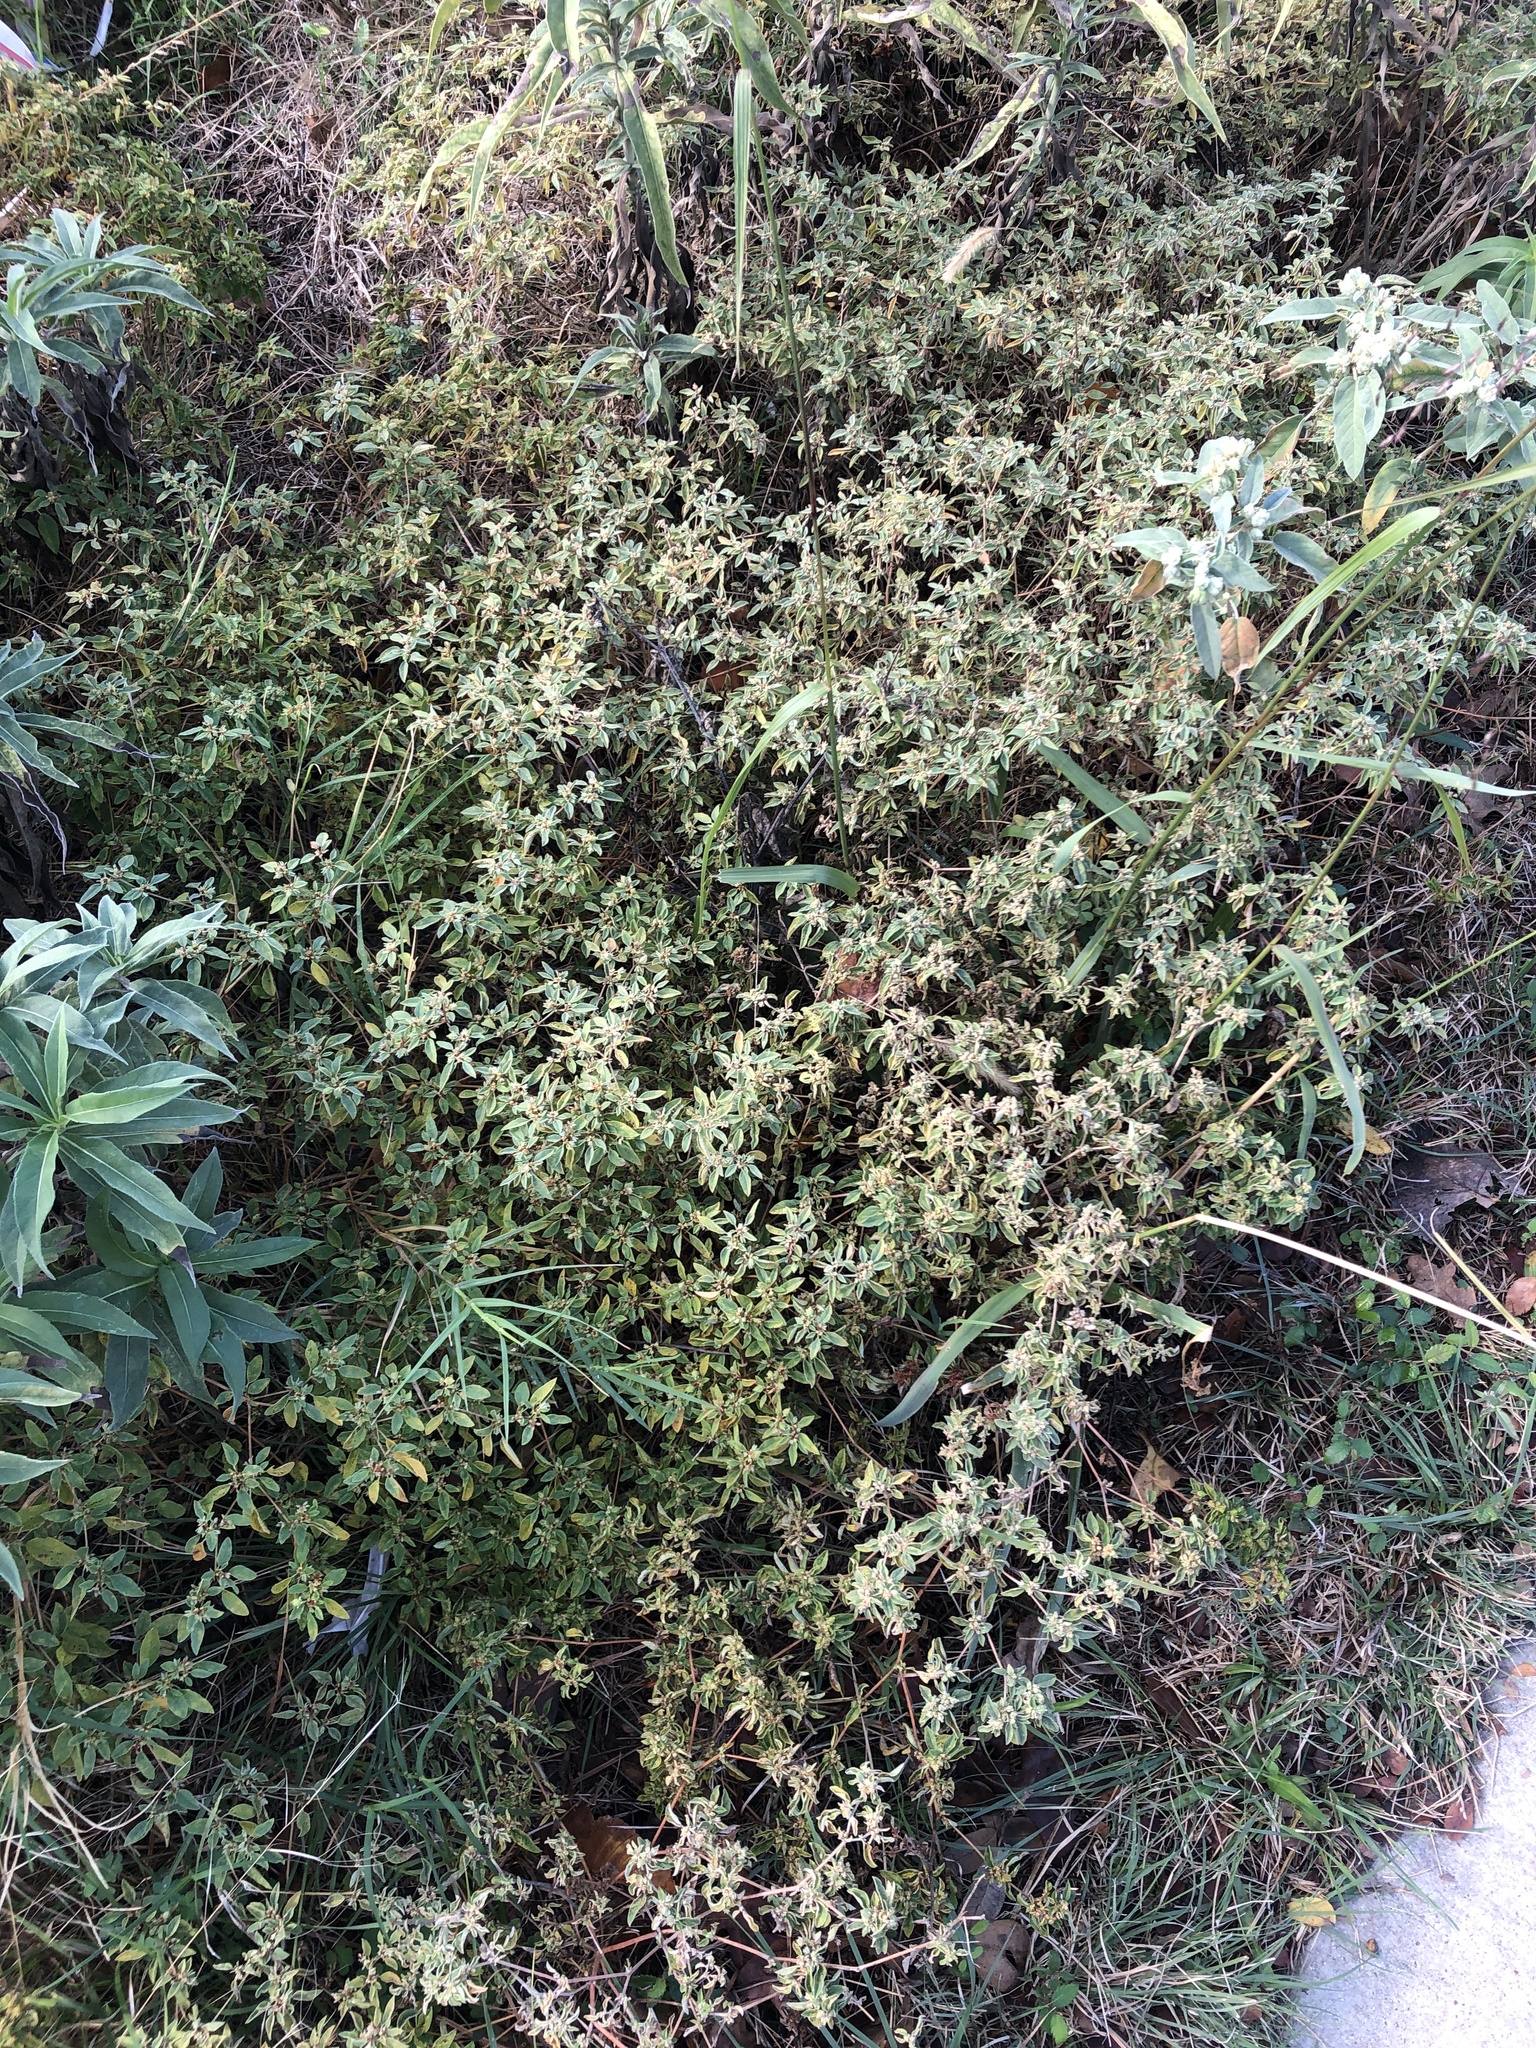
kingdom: Plantae
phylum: Tracheophyta
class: Magnoliopsida
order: Malpighiales
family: Euphorbiaceae
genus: Croton
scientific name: Croton monanthogynus
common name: One-seed croton
